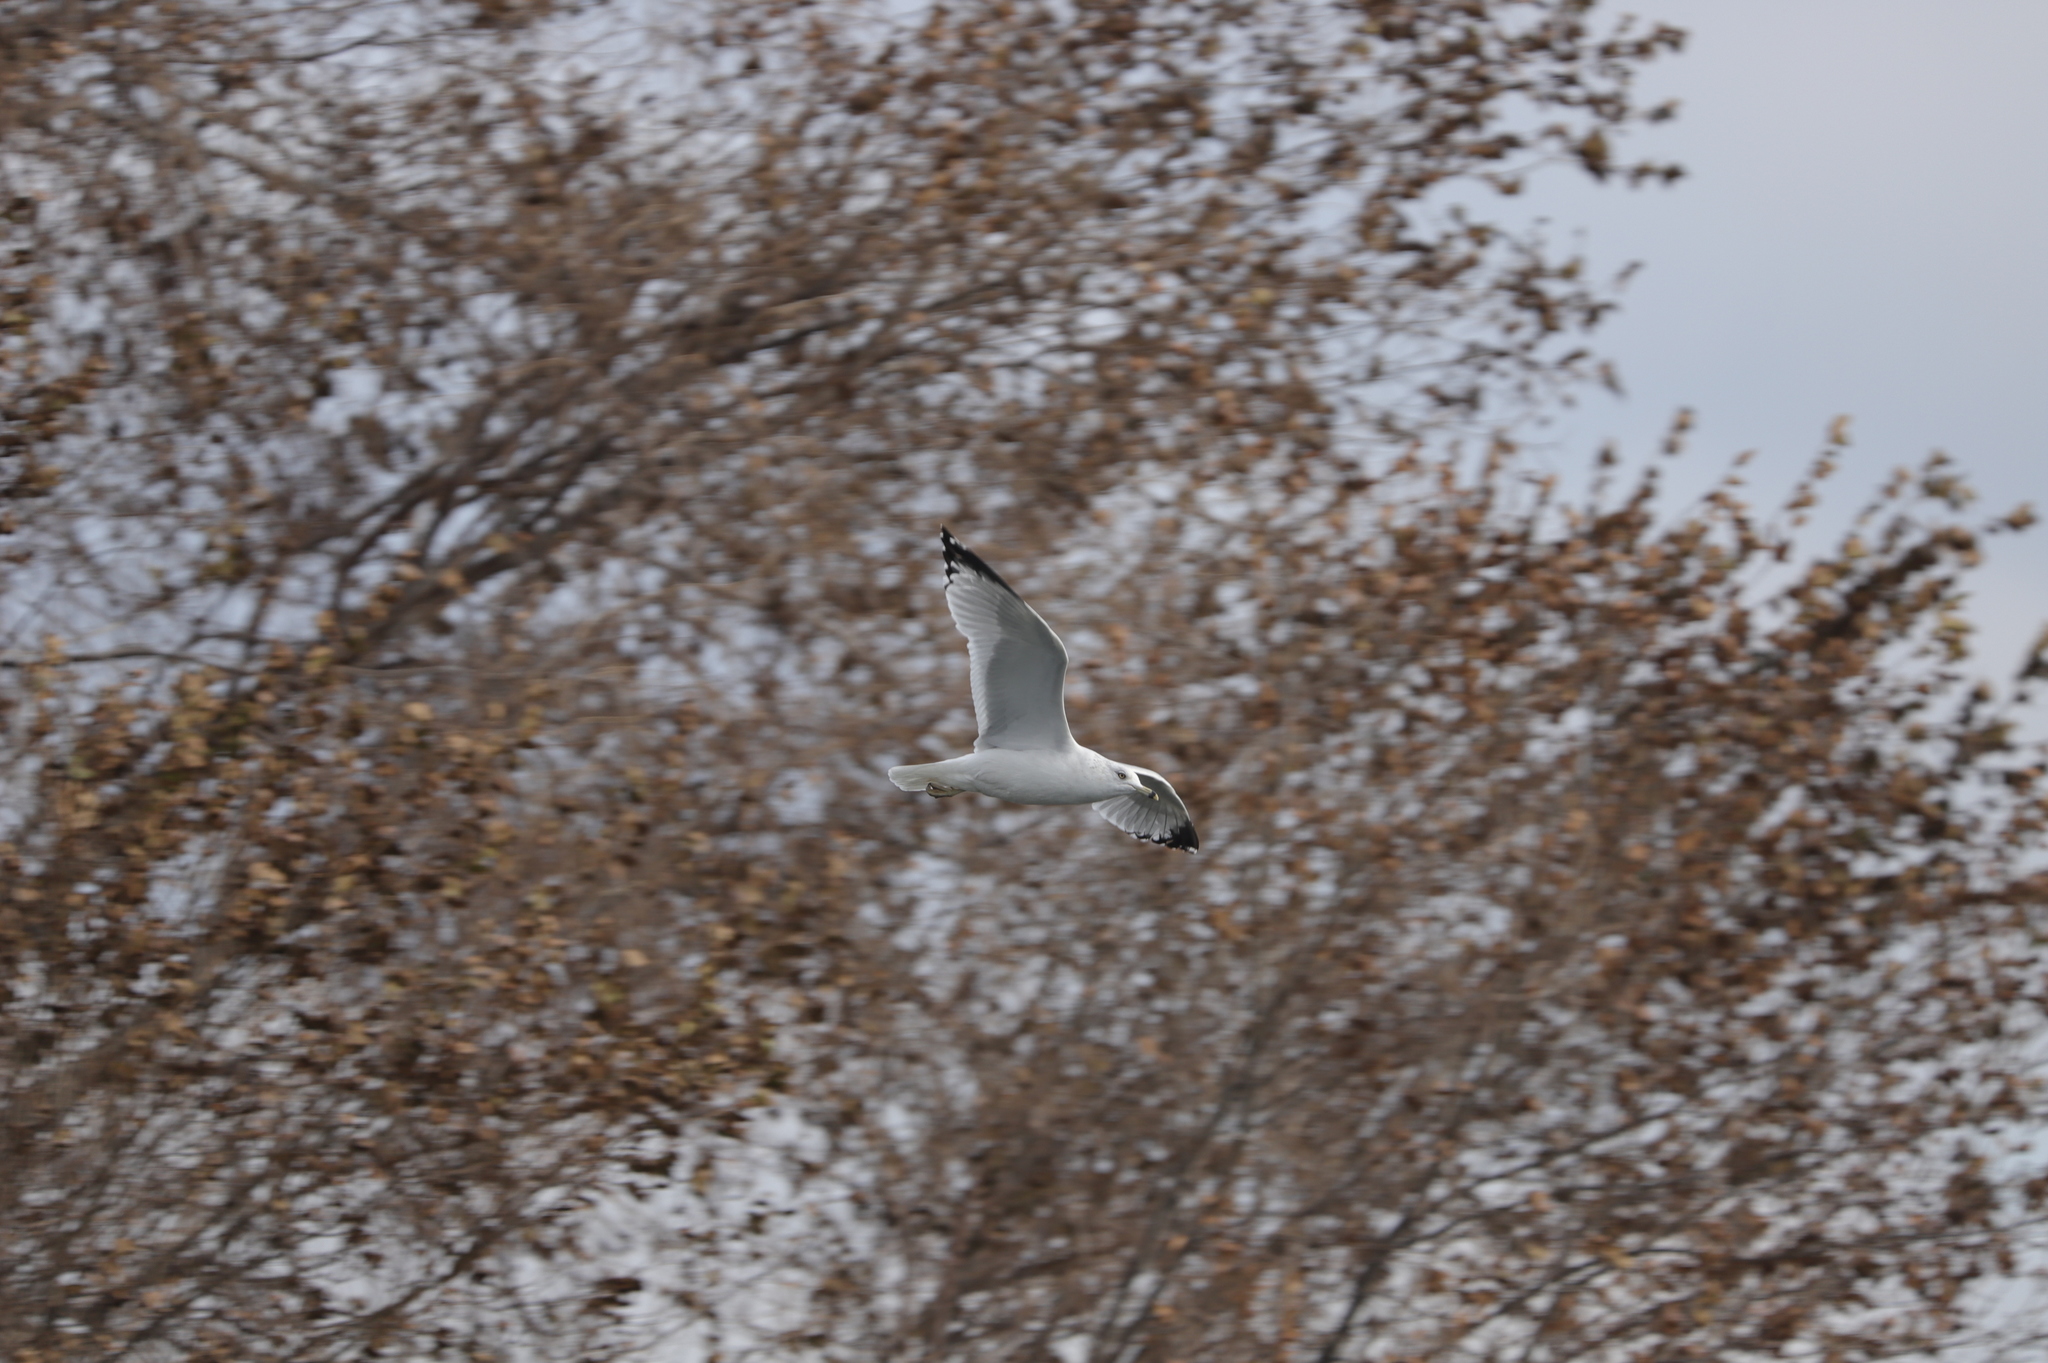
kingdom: Animalia
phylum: Chordata
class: Aves
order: Charadriiformes
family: Laridae
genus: Larus
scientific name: Larus delawarensis
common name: Ring-billed gull
